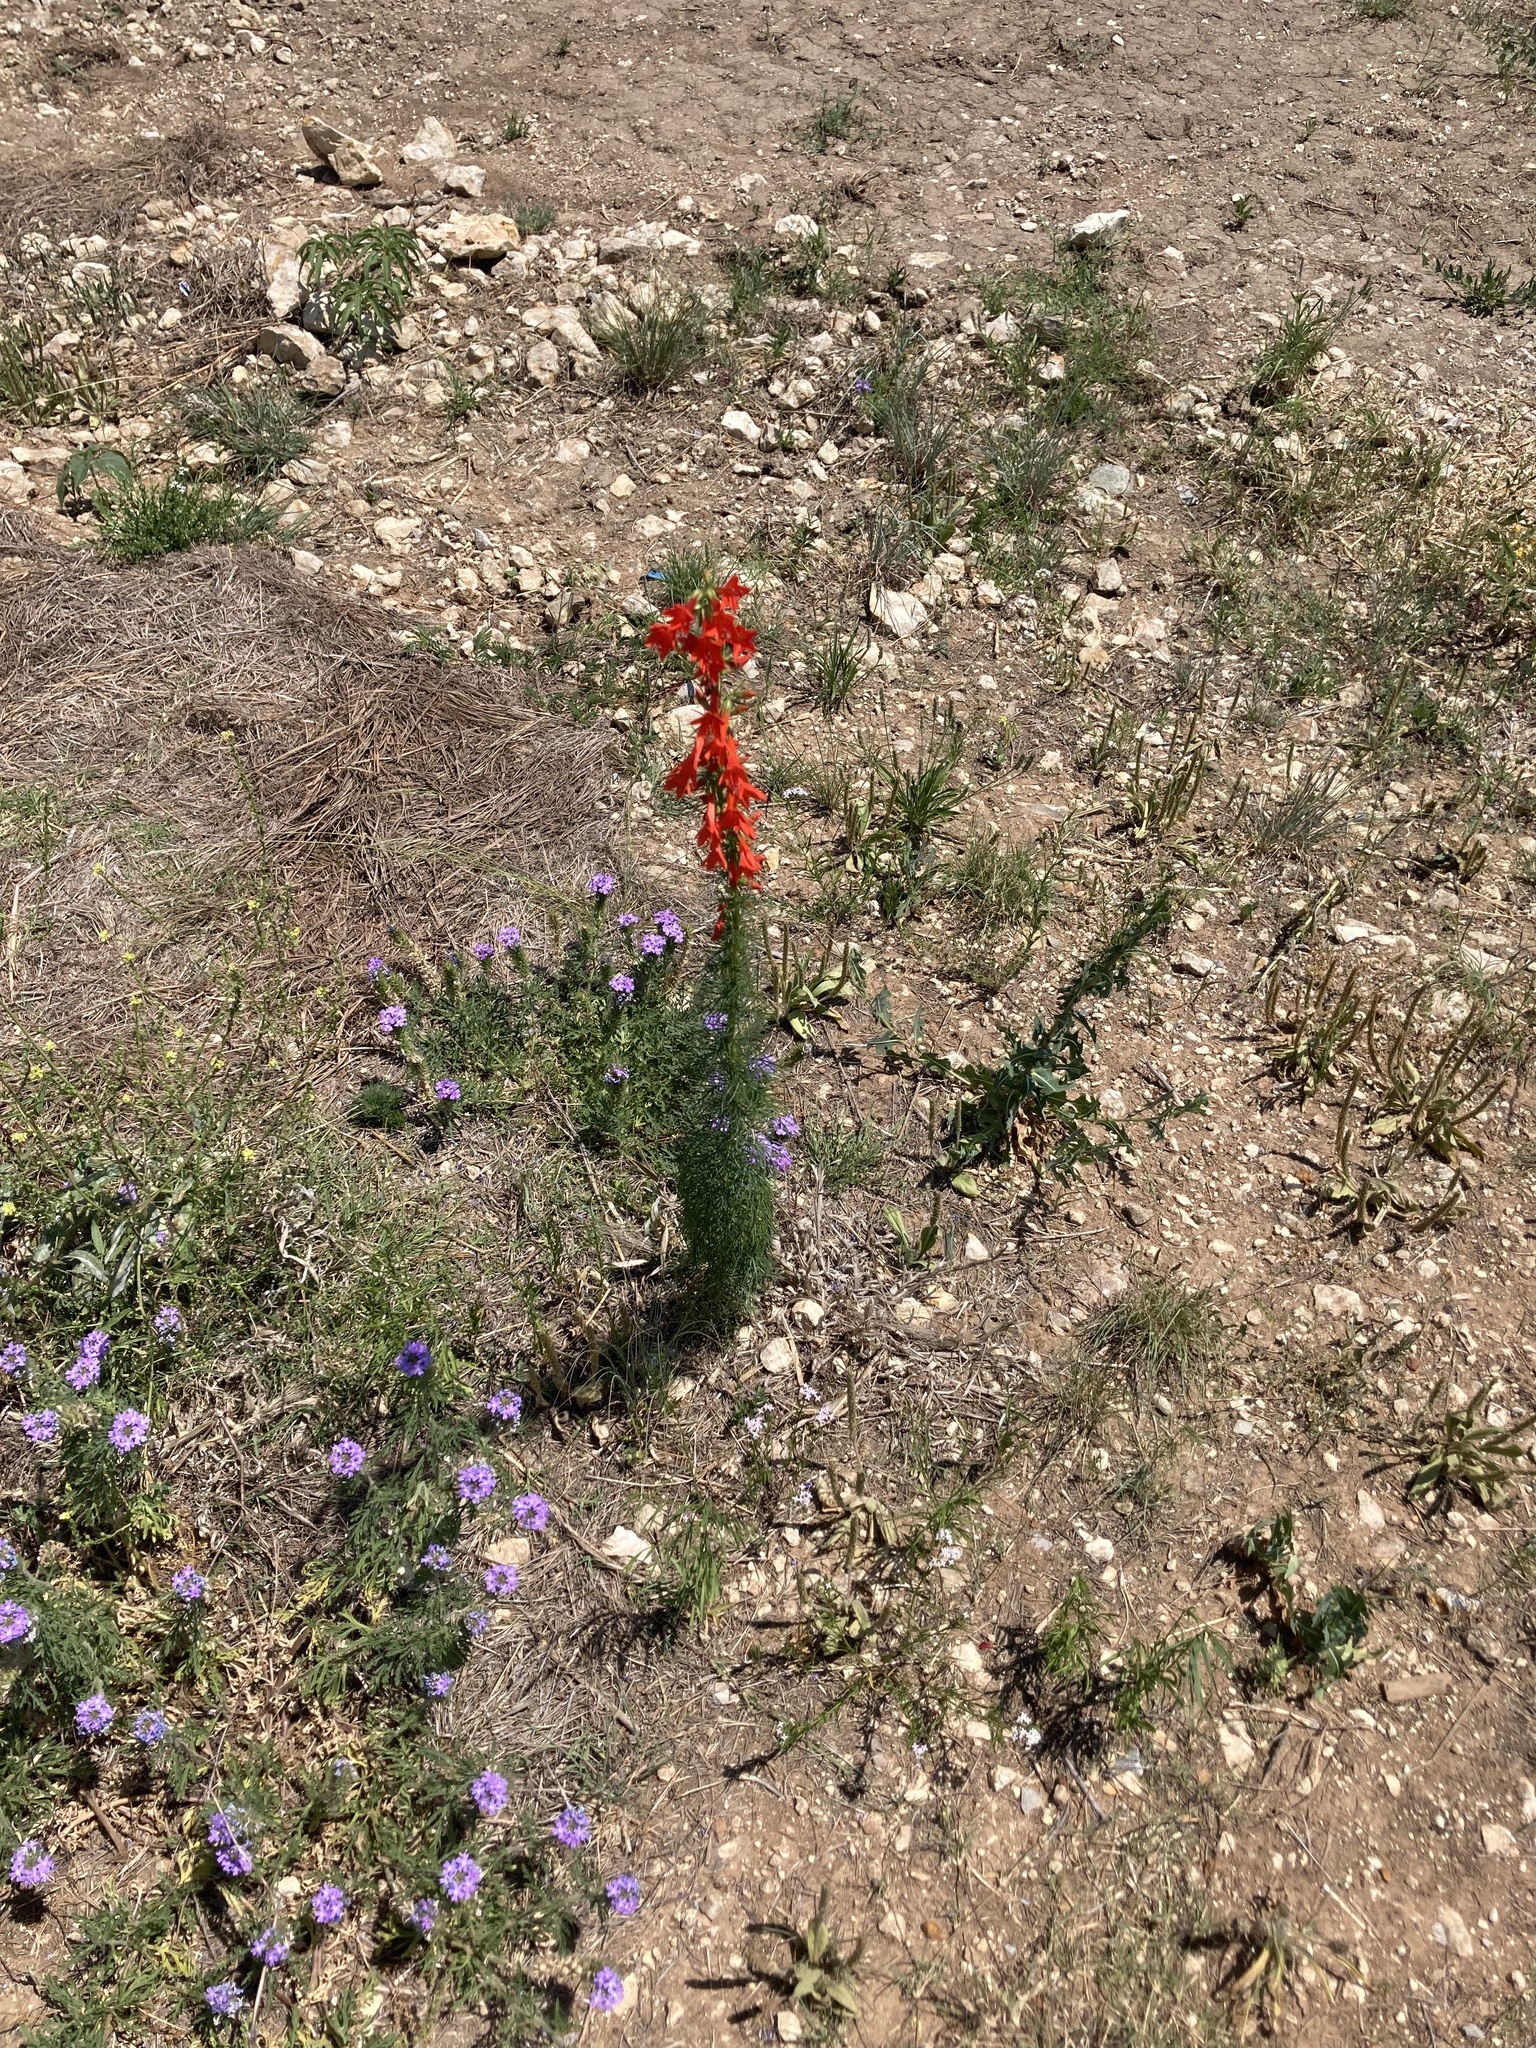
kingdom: Plantae
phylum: Tracheophyta
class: Magnoliopsida
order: Ericales
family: Polemoniaceae
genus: Ipomopsis
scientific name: Ipomopsis rubra
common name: Skyrocket
